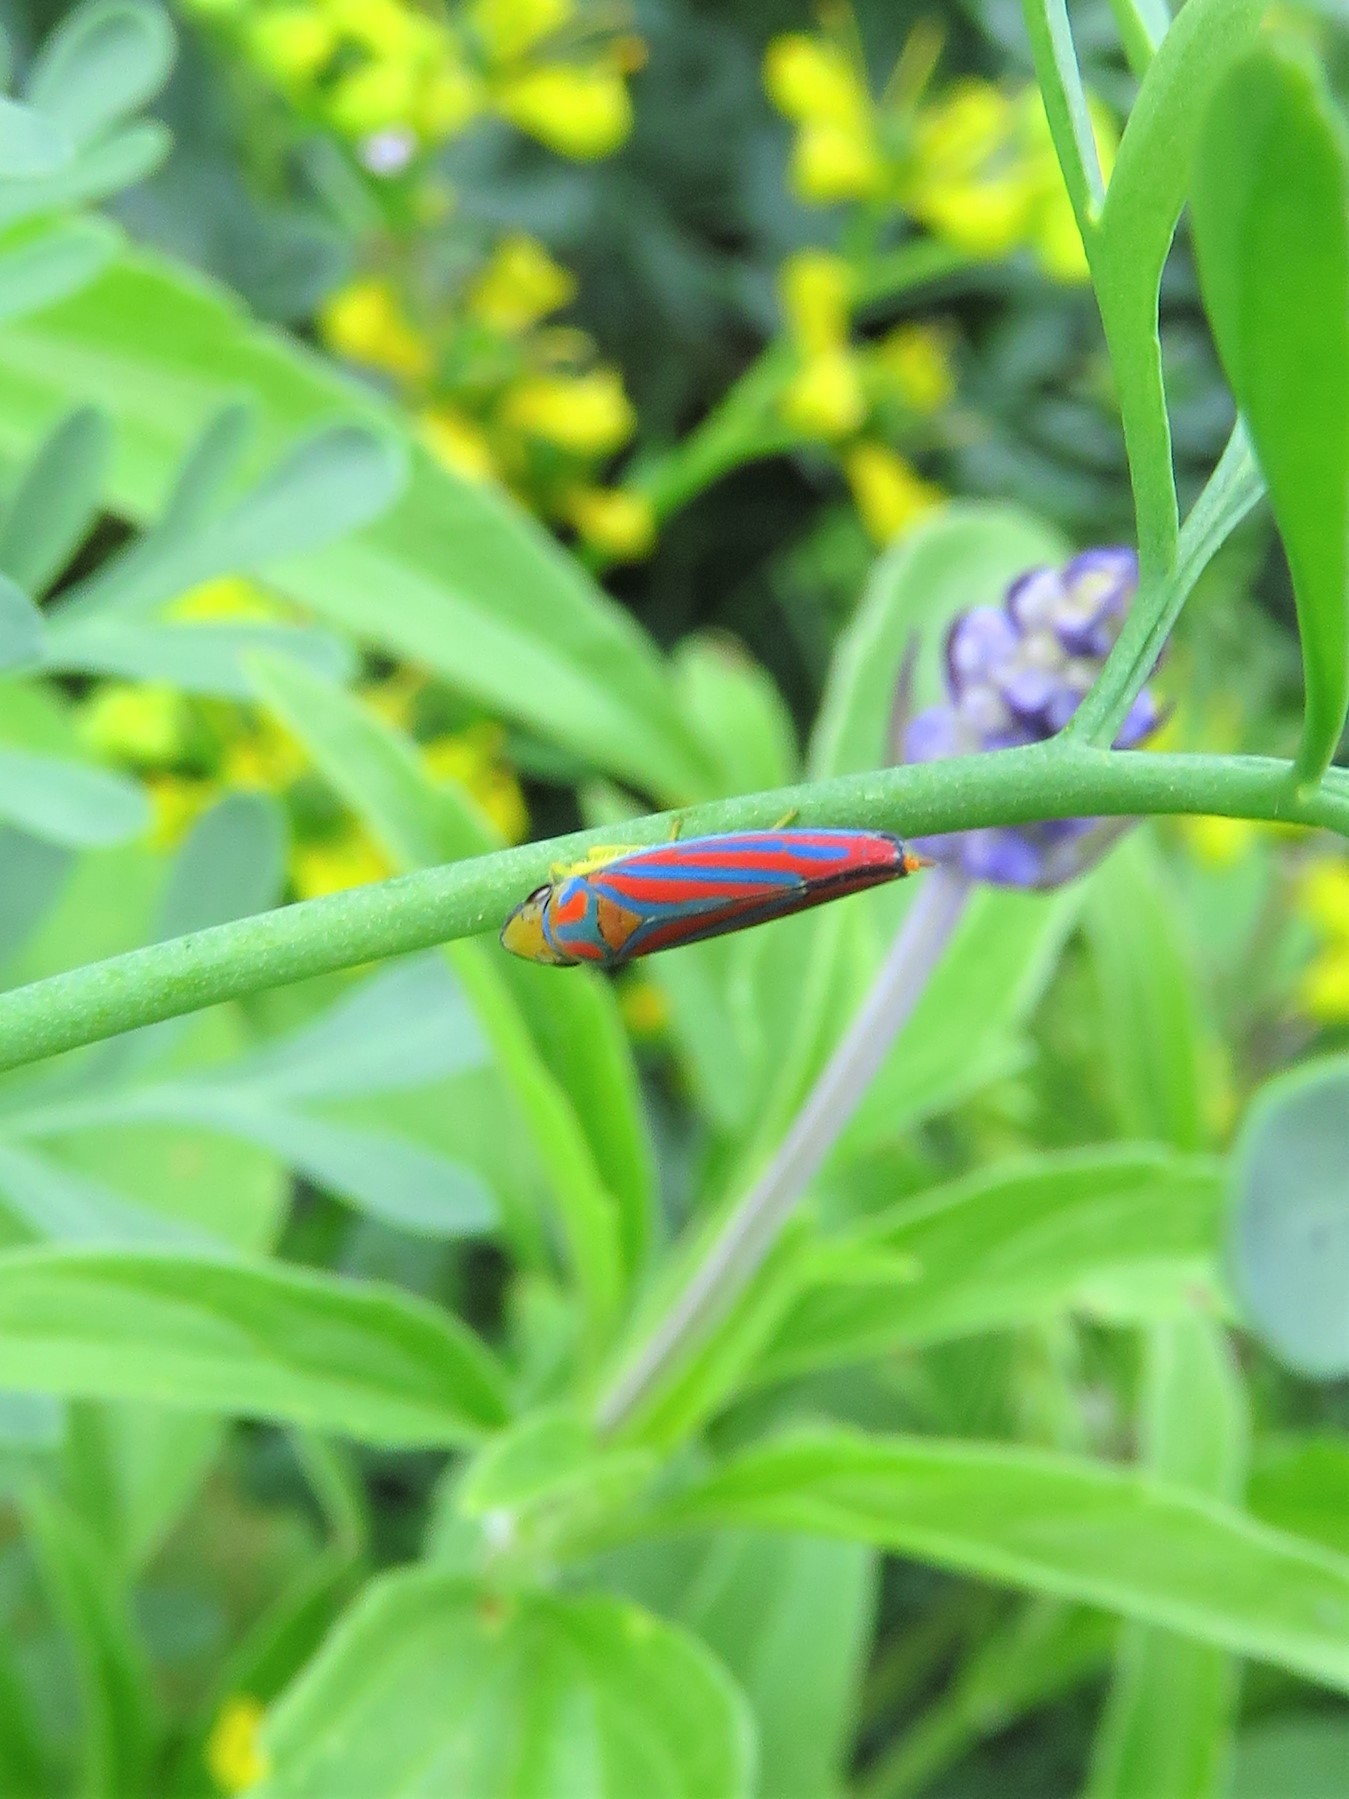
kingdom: Animalia
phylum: Arthropoda
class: Insecta
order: Hemiptera
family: Cicadellidae
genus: Graphocephala
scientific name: Graphocephala coccinea
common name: Candy-striped leafhopper
